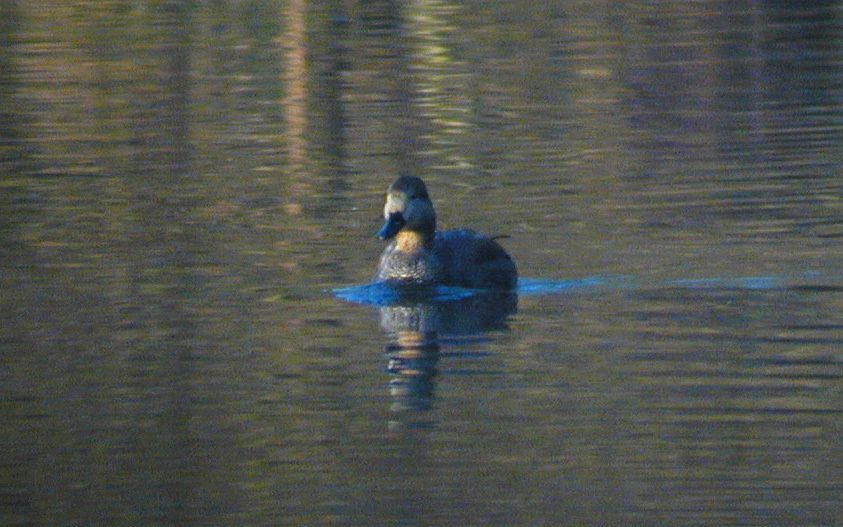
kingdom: Animalia
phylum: Chordata
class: Aves
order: Anseriformes
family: Anatidae
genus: Mareca
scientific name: Mareca strepera
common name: Gadwall
